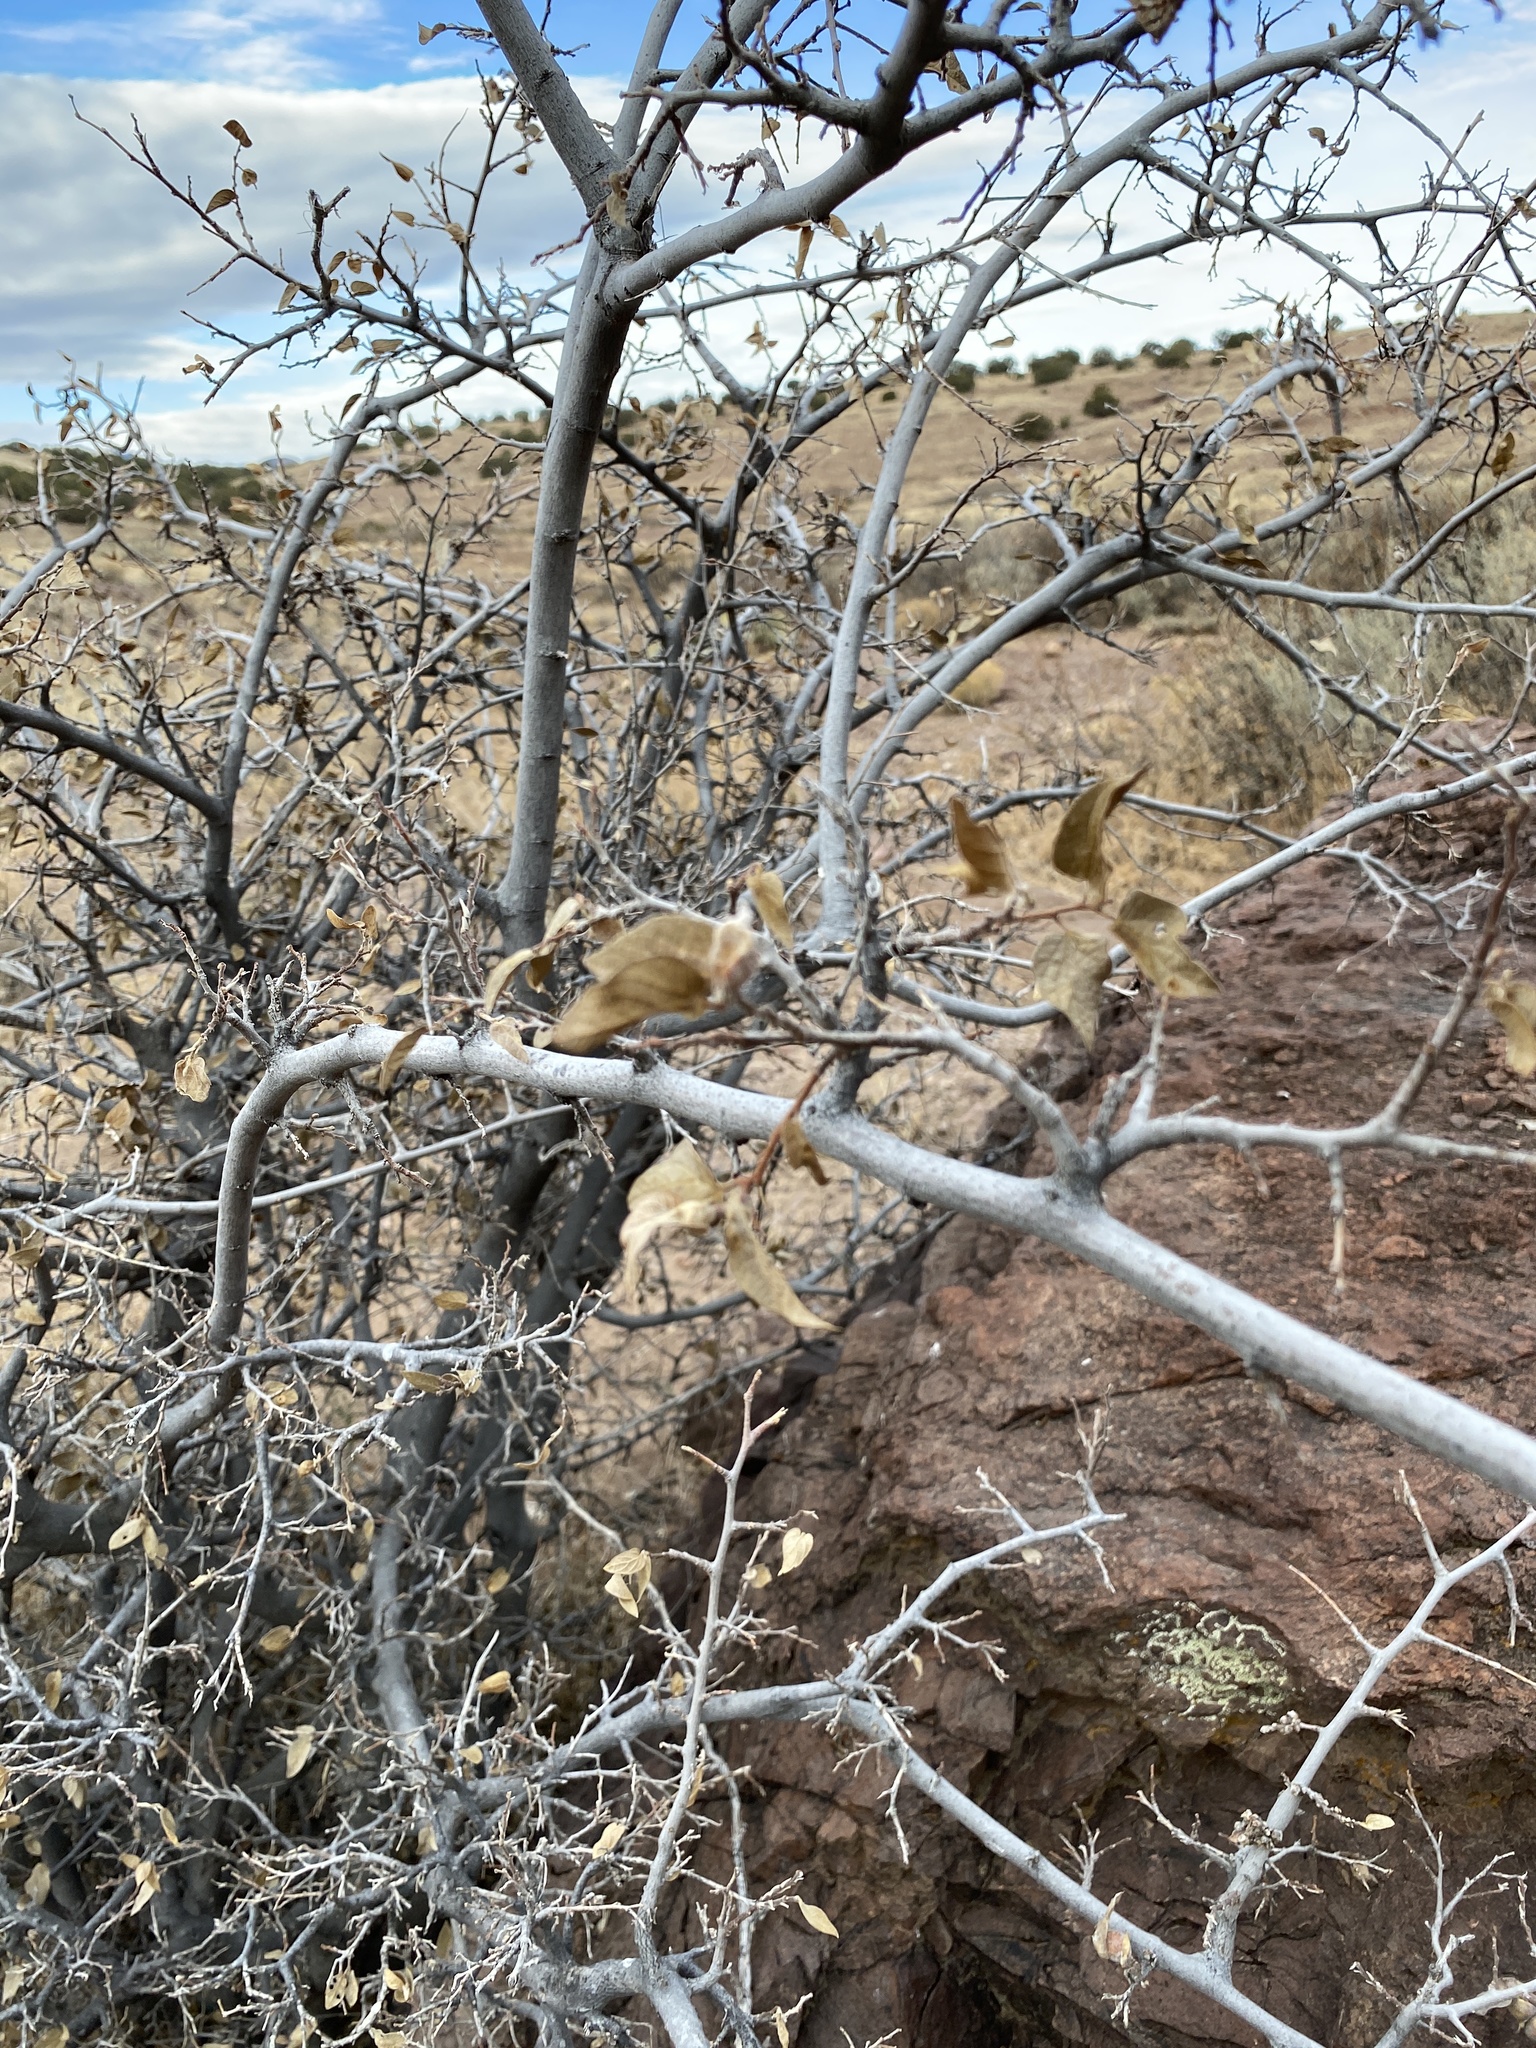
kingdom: Plantae
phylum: Tracheophyta
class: Magnoliopsida
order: Rosales
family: Cannabaceae
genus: Celtis
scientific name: Celtis reticulata
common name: Netleaf hackberry
